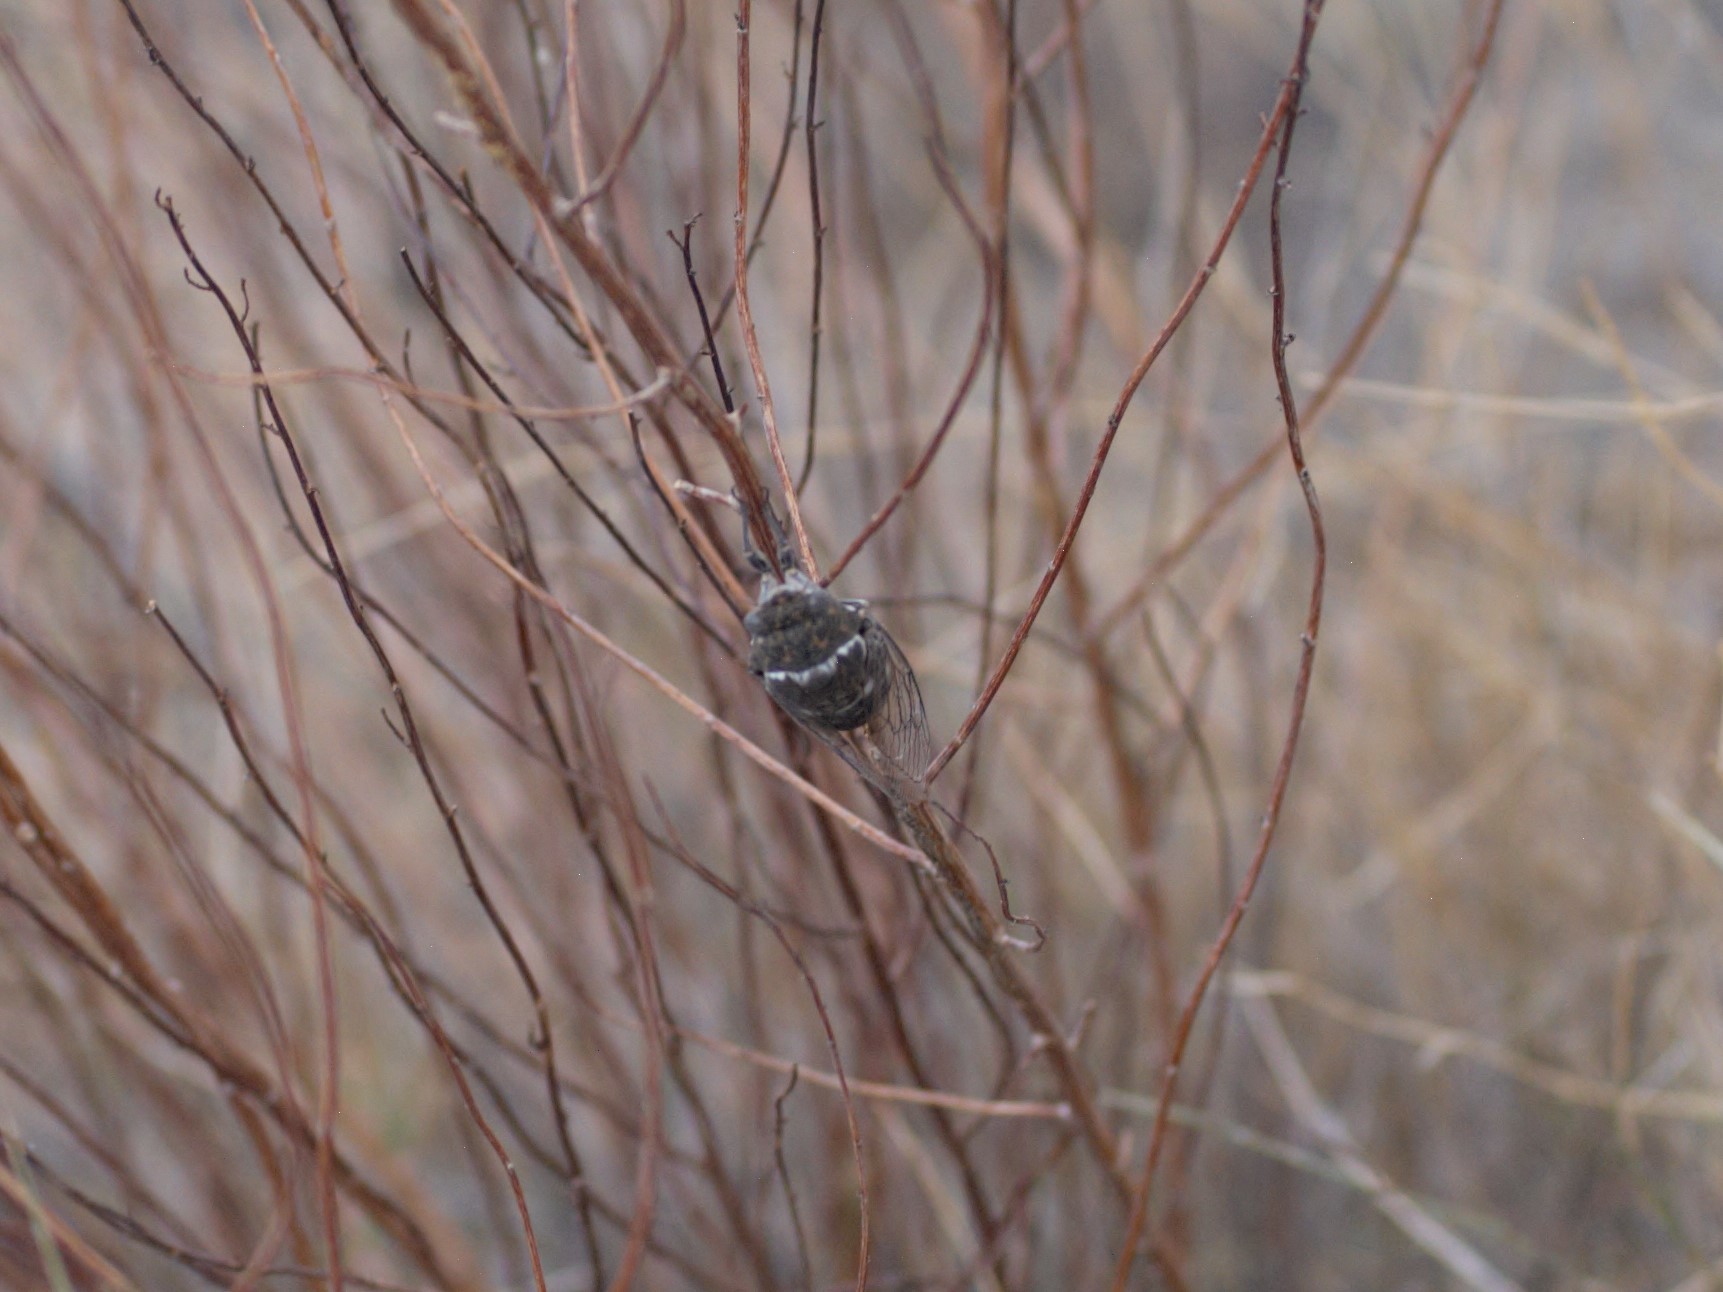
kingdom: Animalia
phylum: Arthropoda
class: Insecta
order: Hemiptera
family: Cicadidae
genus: Cacama
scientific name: Cacama valvata
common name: Cactus dodger
